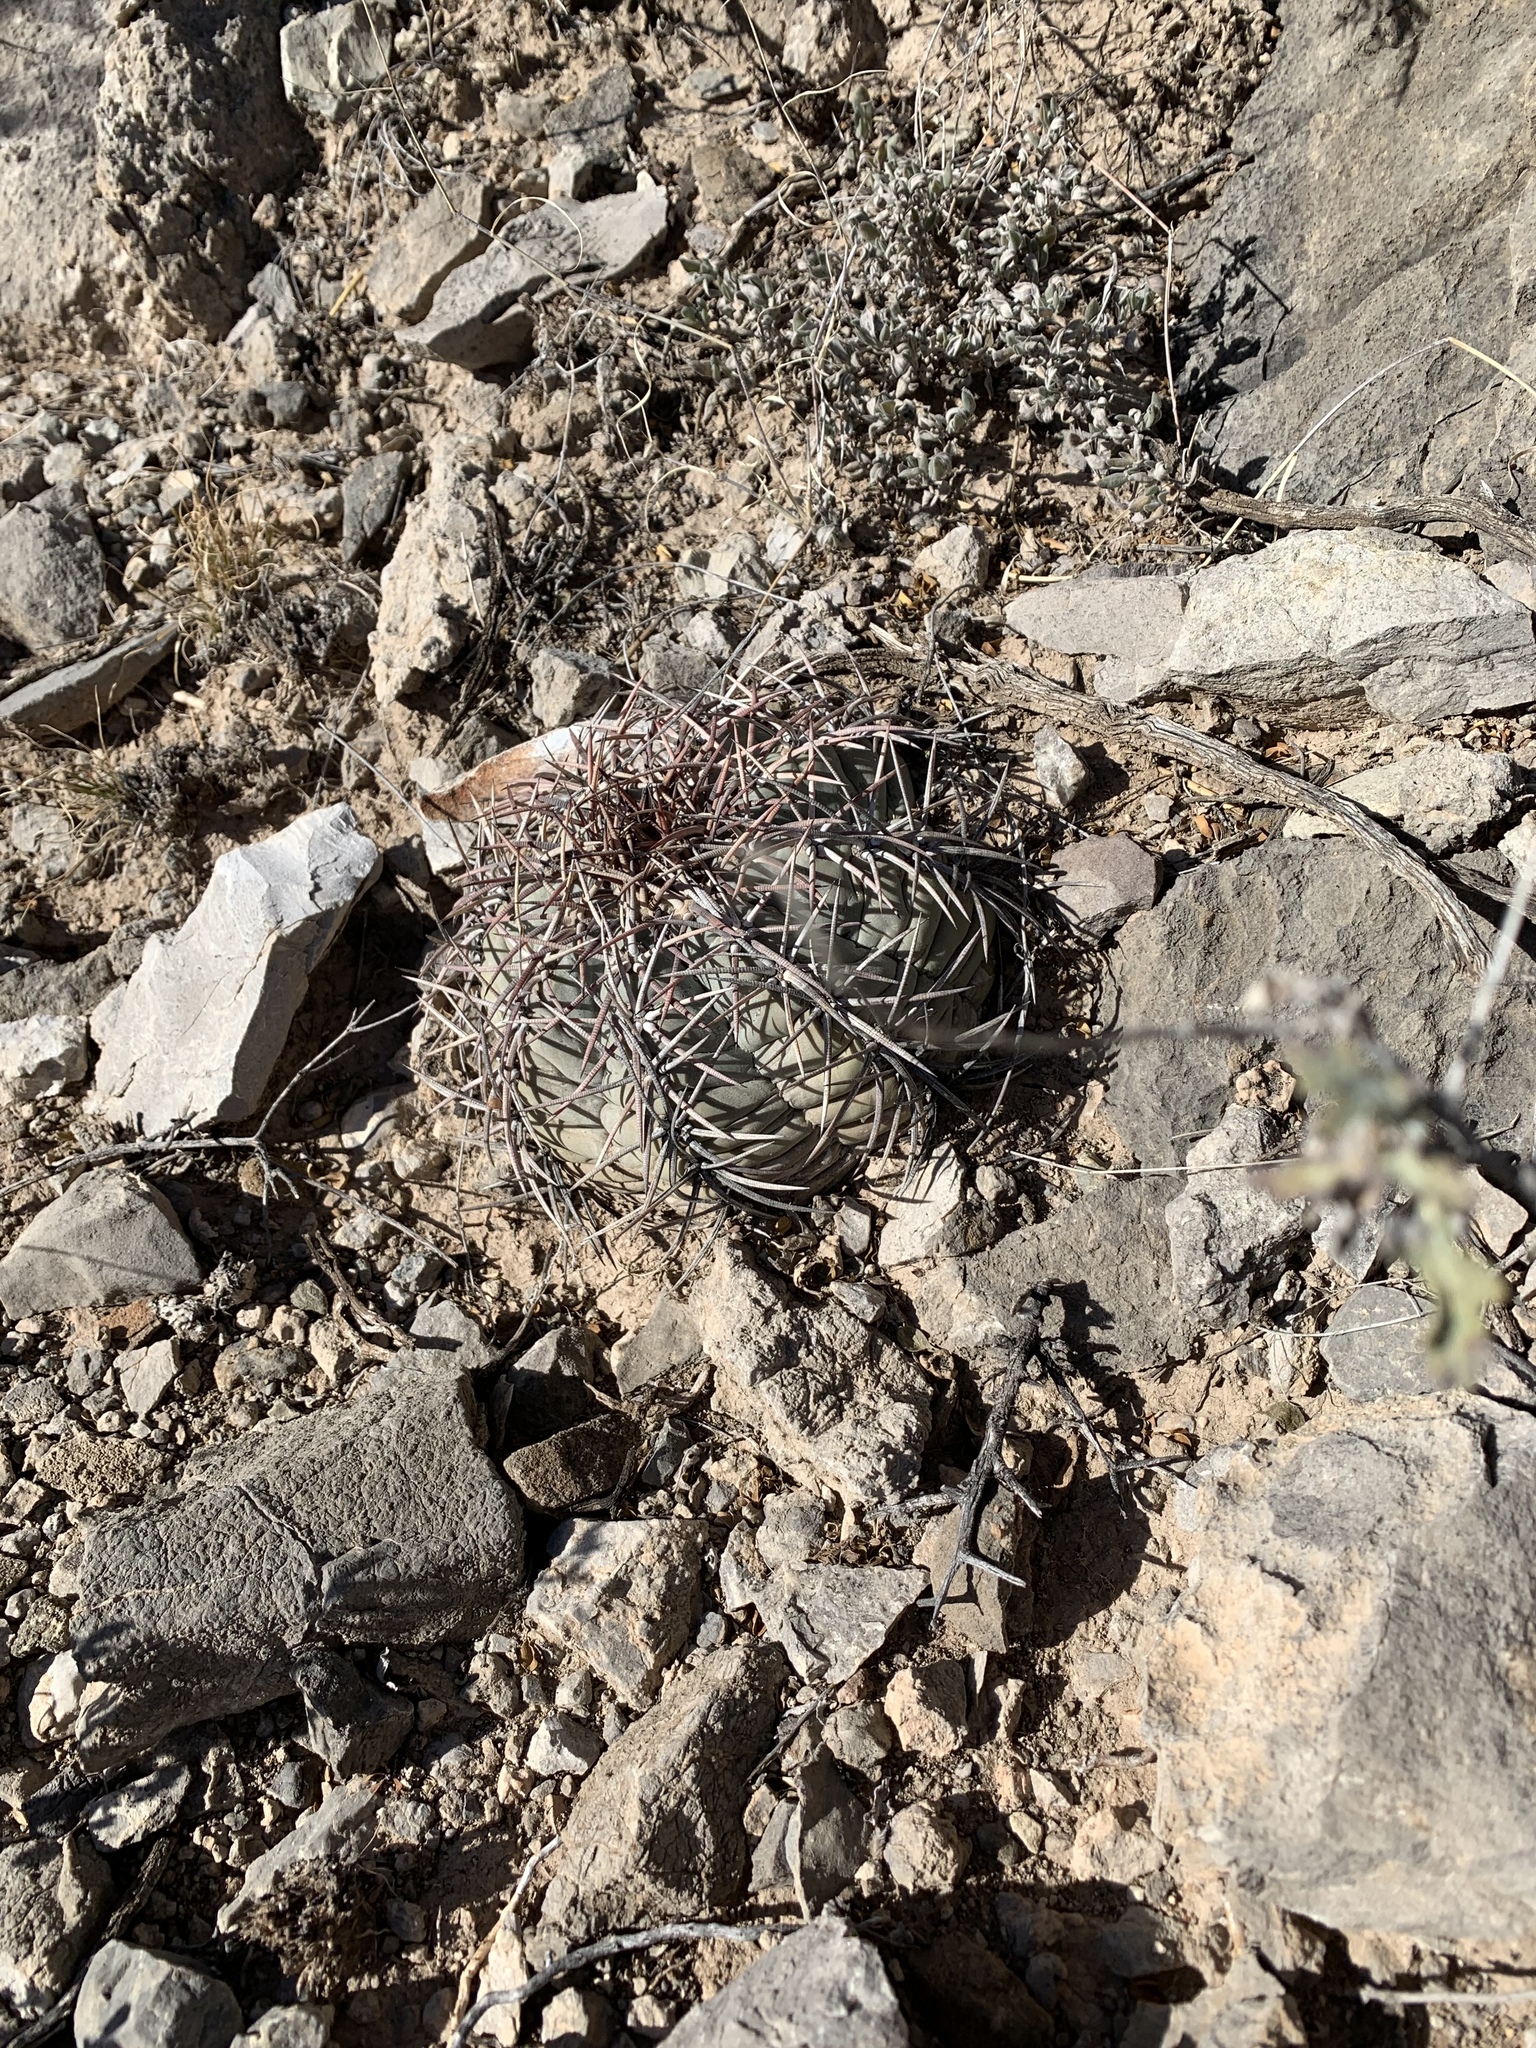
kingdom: Plantae
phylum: Tracheophyta
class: Magnoliopsida
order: Caryophyllales
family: Cactaceae
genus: Echinocactus
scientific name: Echinocactus horizonthalonius
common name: Devilshead
